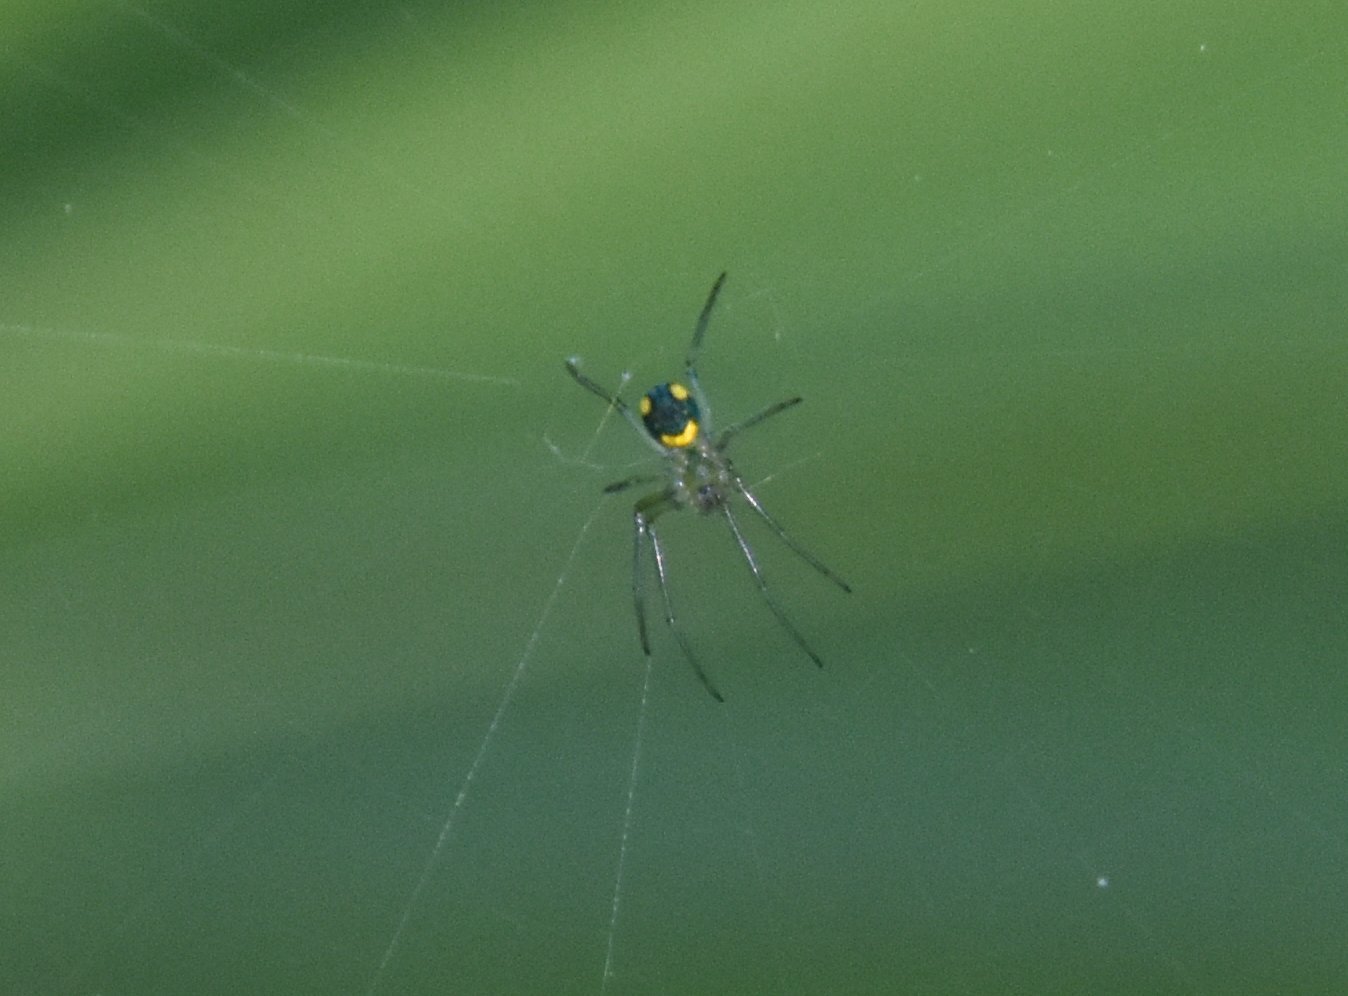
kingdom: Animalia
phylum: Arthropoda
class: Arachnida
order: Araneae
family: Tetragnathidae
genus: Leucauge
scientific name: Leucauge argyrobapta
